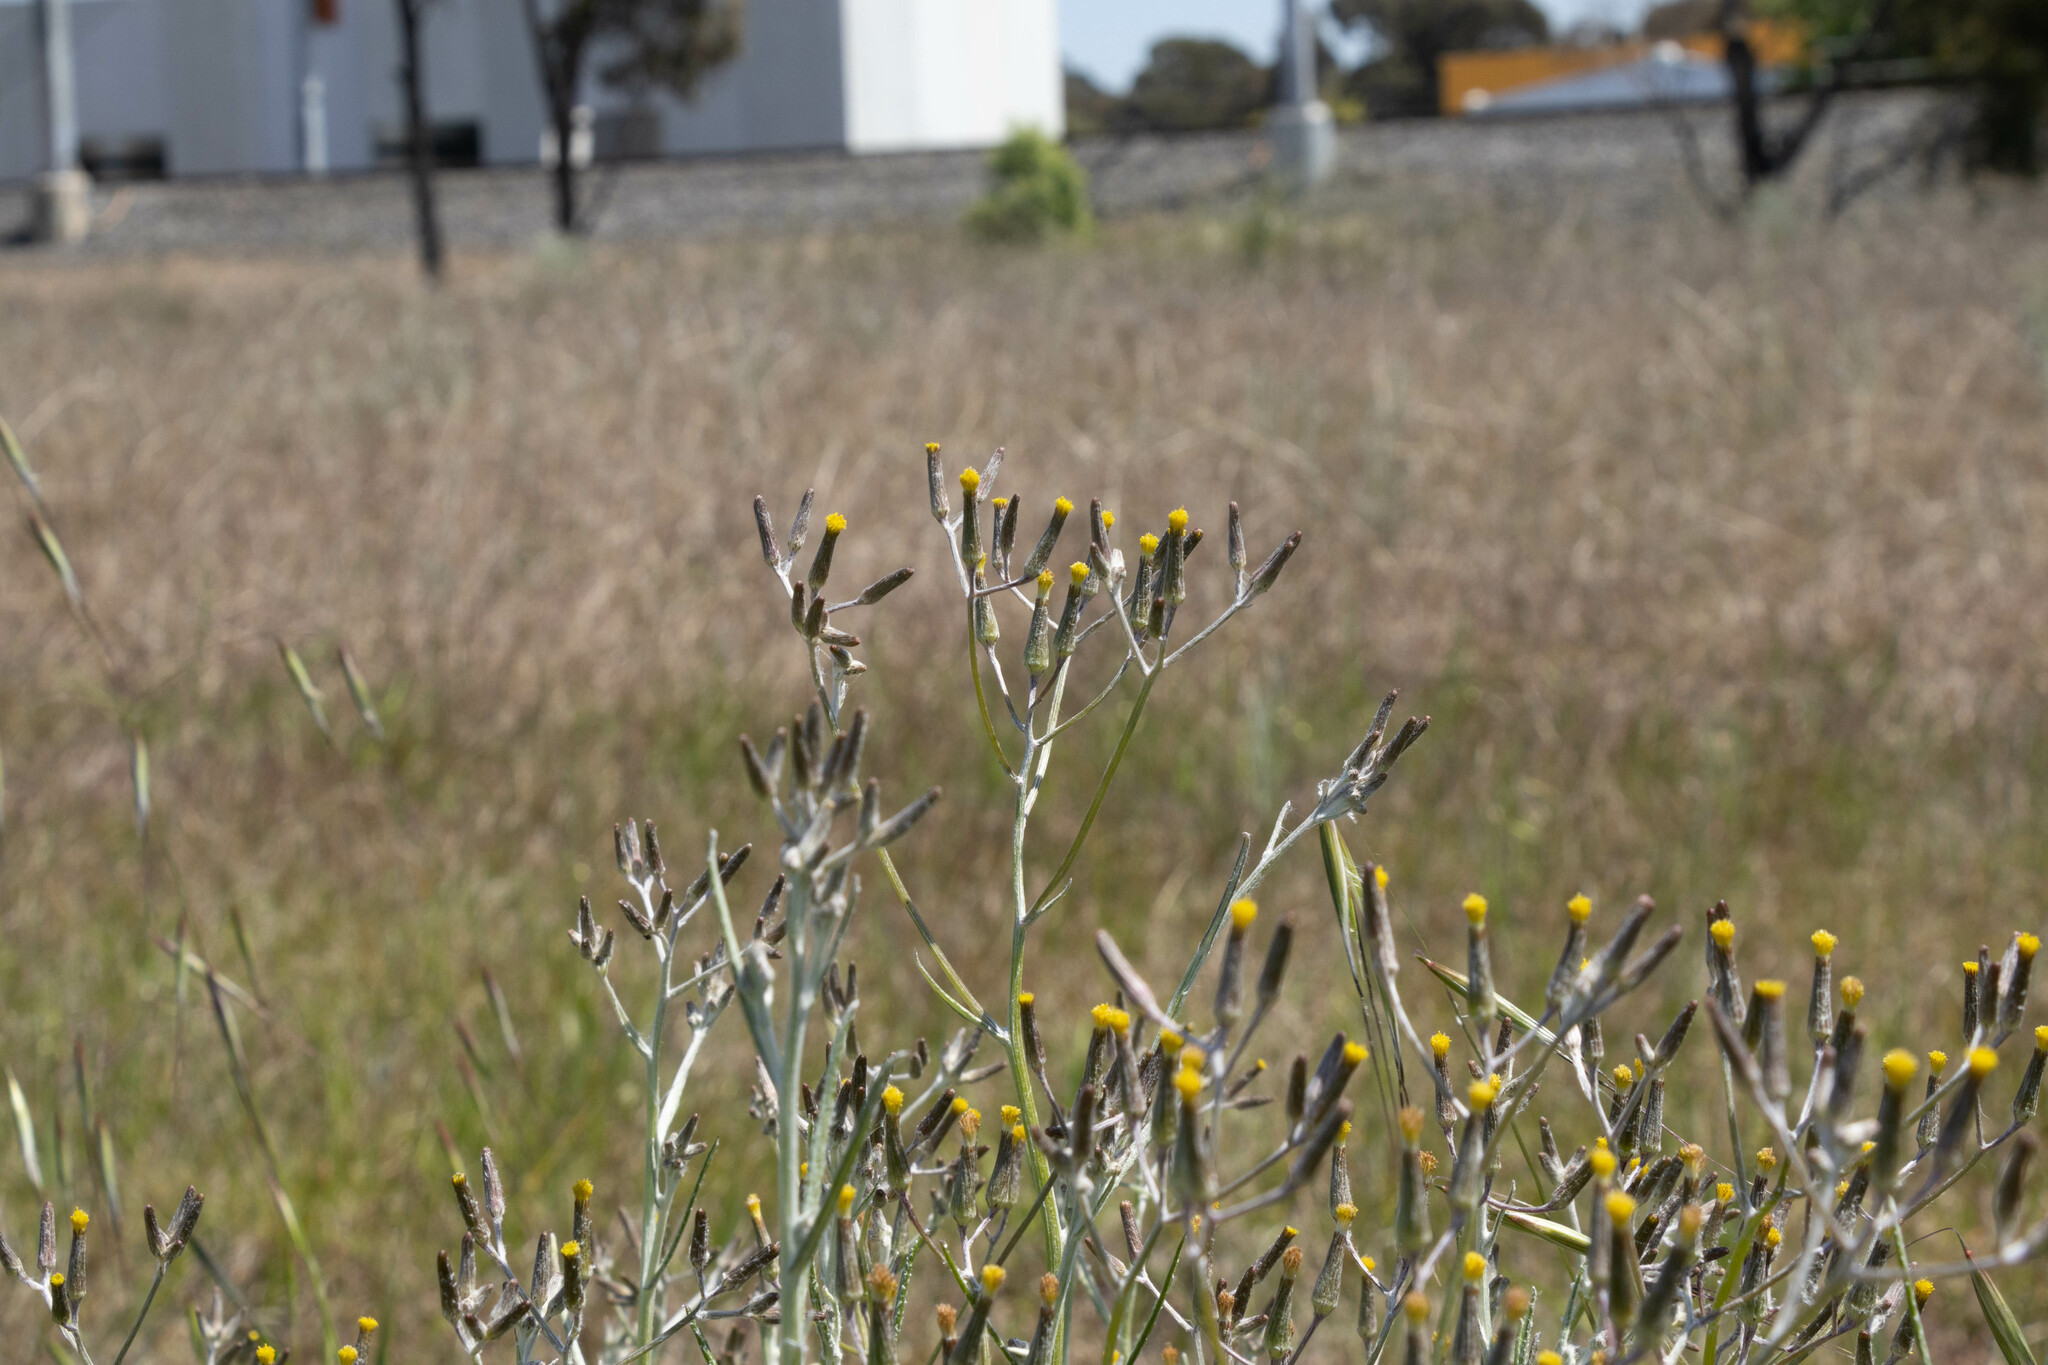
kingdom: Plantae
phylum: Tracheophyta
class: Magnoliopsida
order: Asterales
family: Asteraceae
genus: Senecio
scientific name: Senecio quadridentatus
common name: Cotton fireweed
